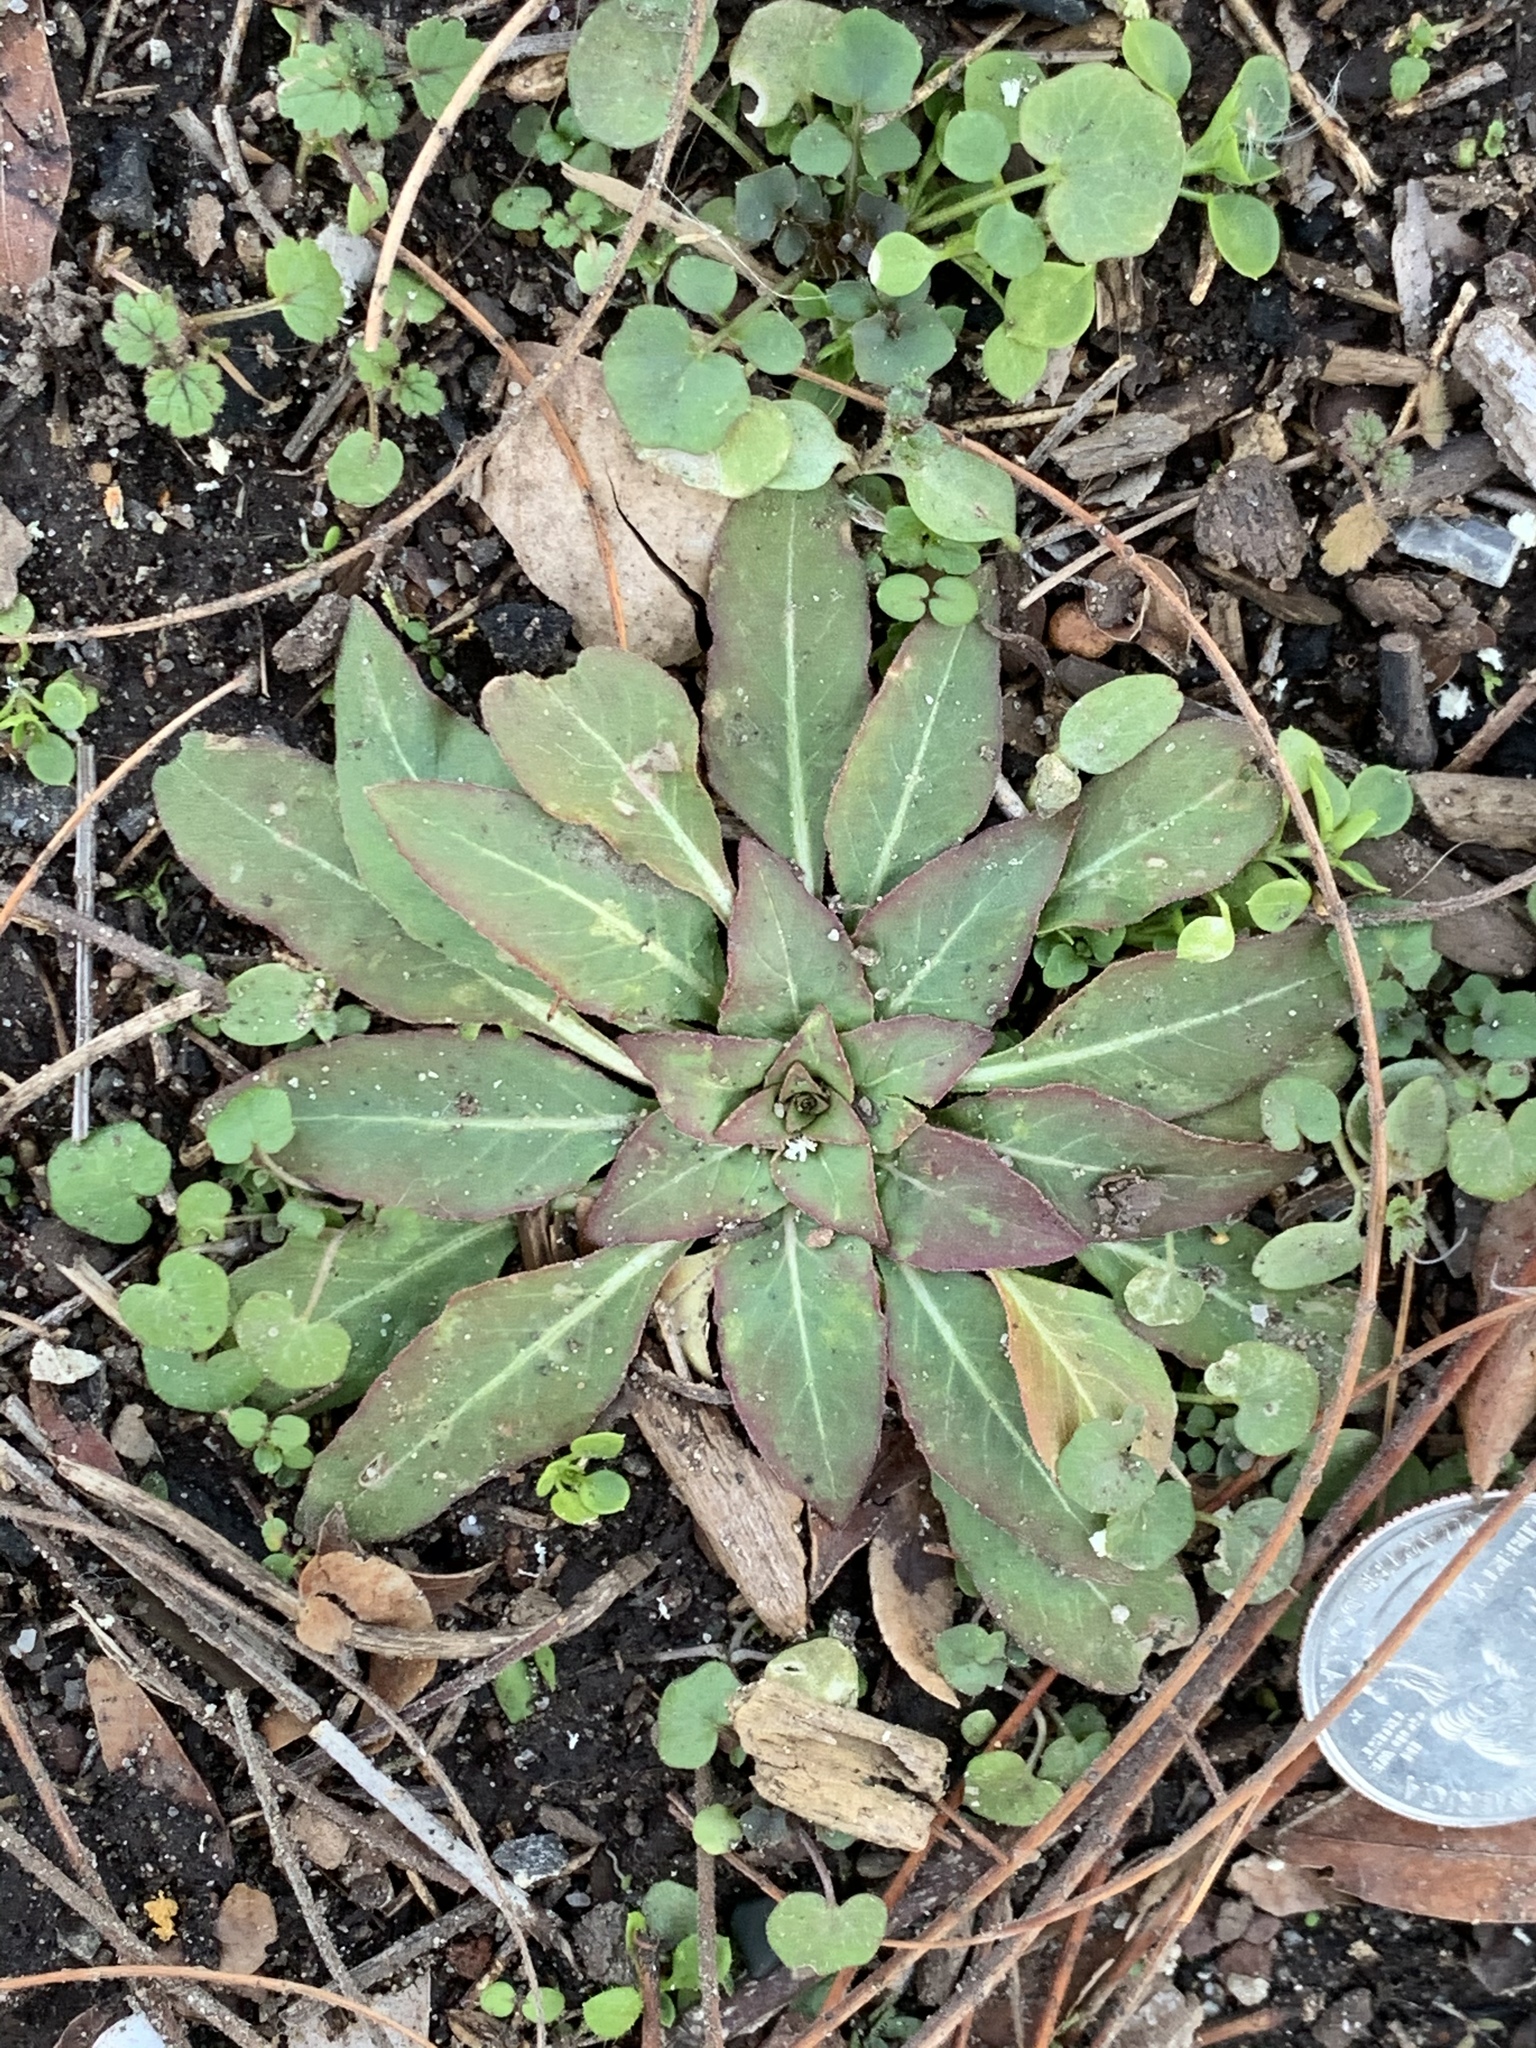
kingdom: Plantae
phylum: Tracheophyta
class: Magnoliopsida
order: Myrtales
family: Onagraceae
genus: Oenothera
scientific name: Oenothera biennis
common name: Common evening-primrose
